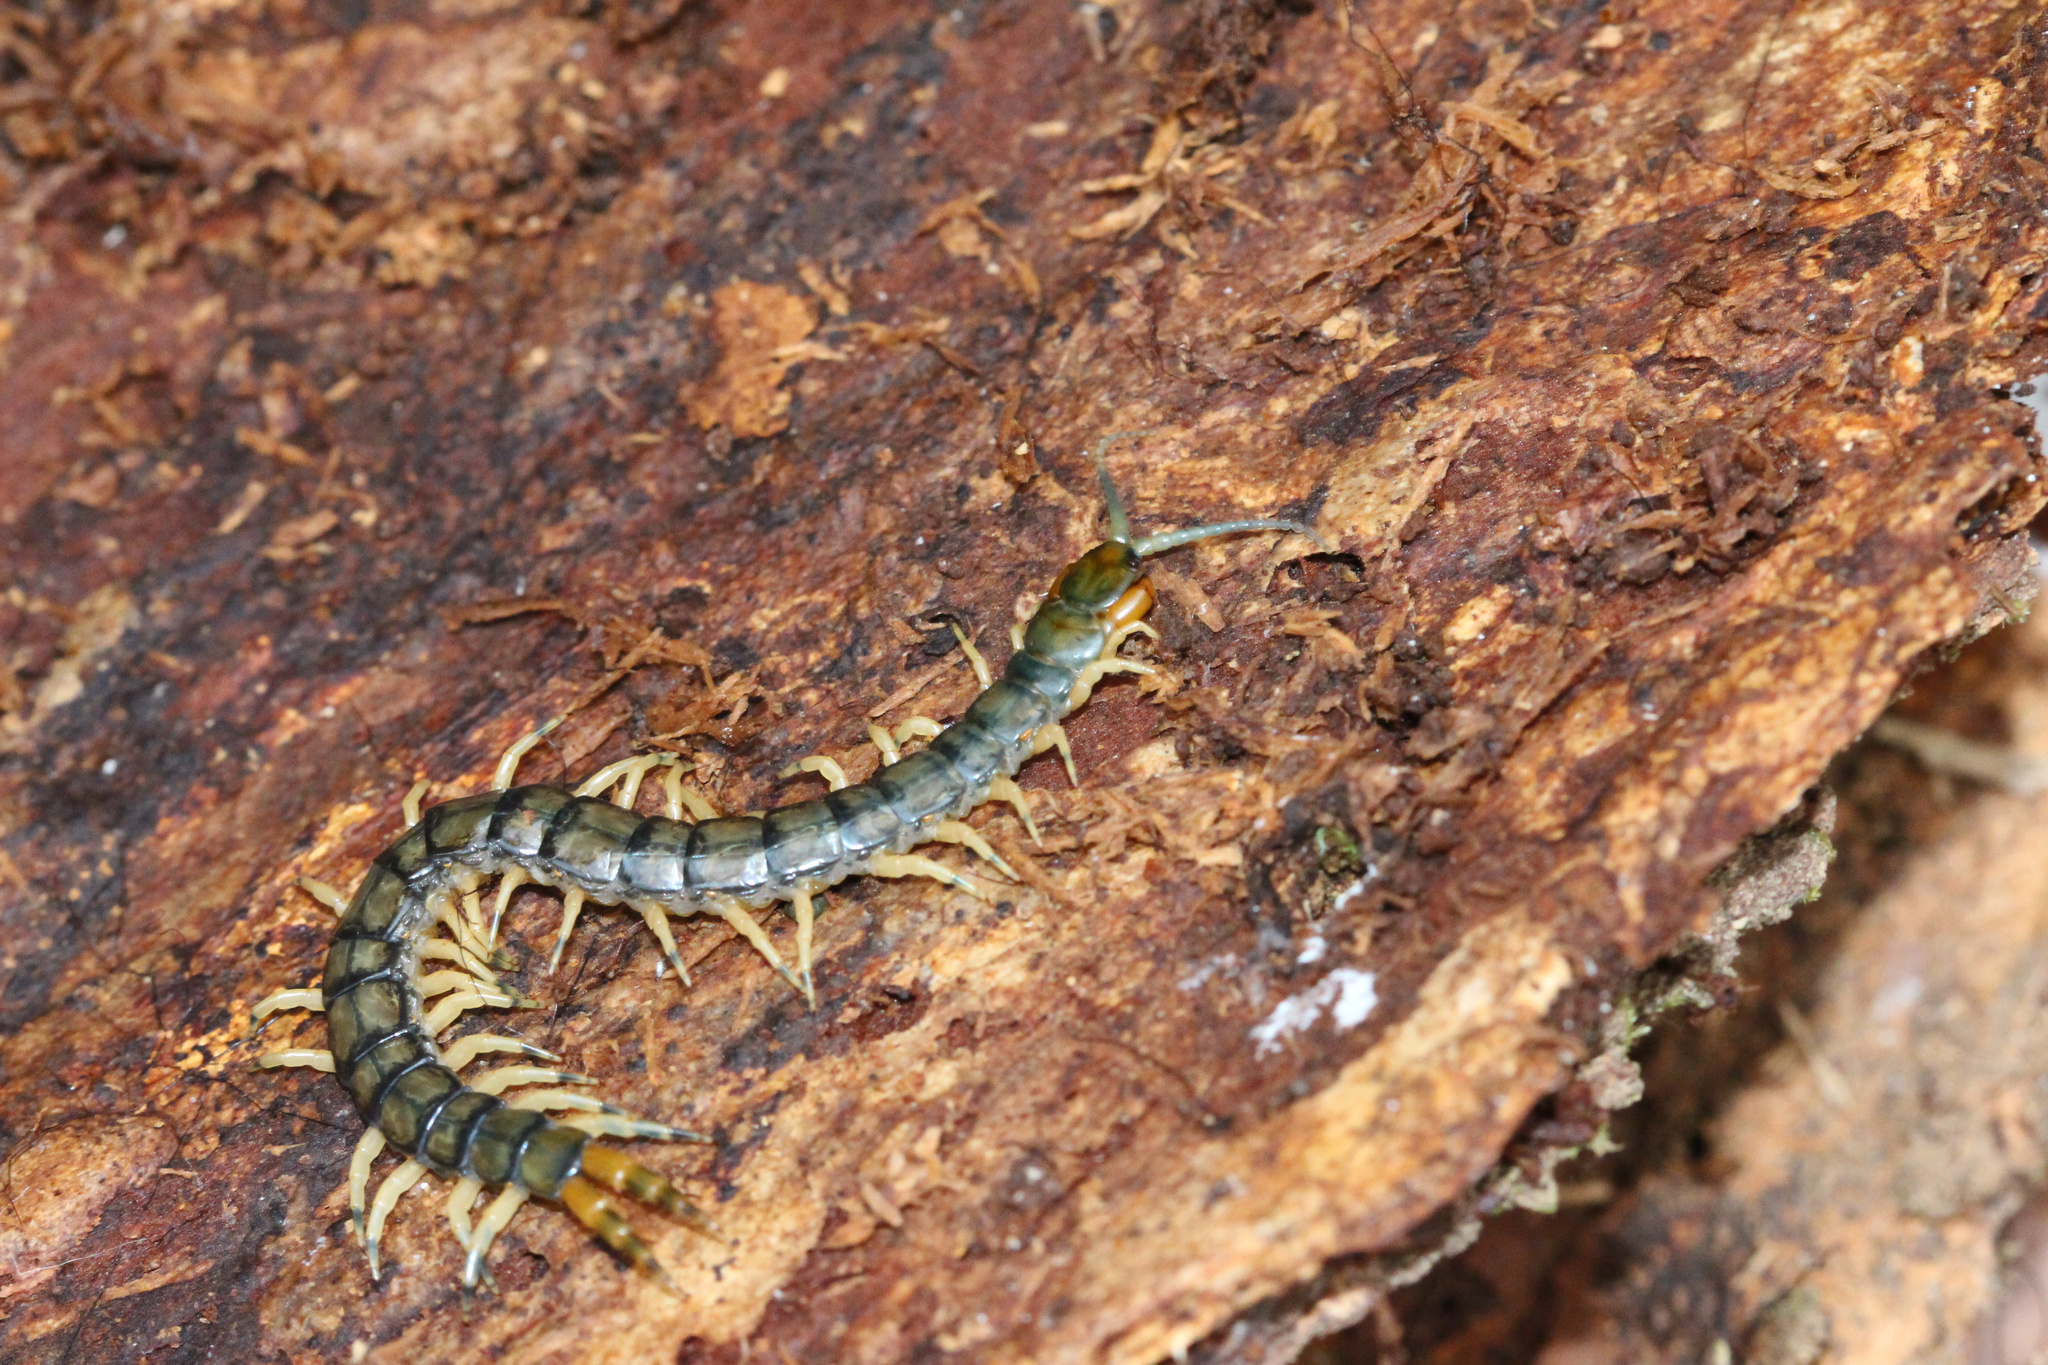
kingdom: Animalia
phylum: Arthropoda
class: Chilopoda
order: Scolopendromorpha
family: Scolopendridae
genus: Hemiscolopendra
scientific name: Hemiscolopendra marginata
